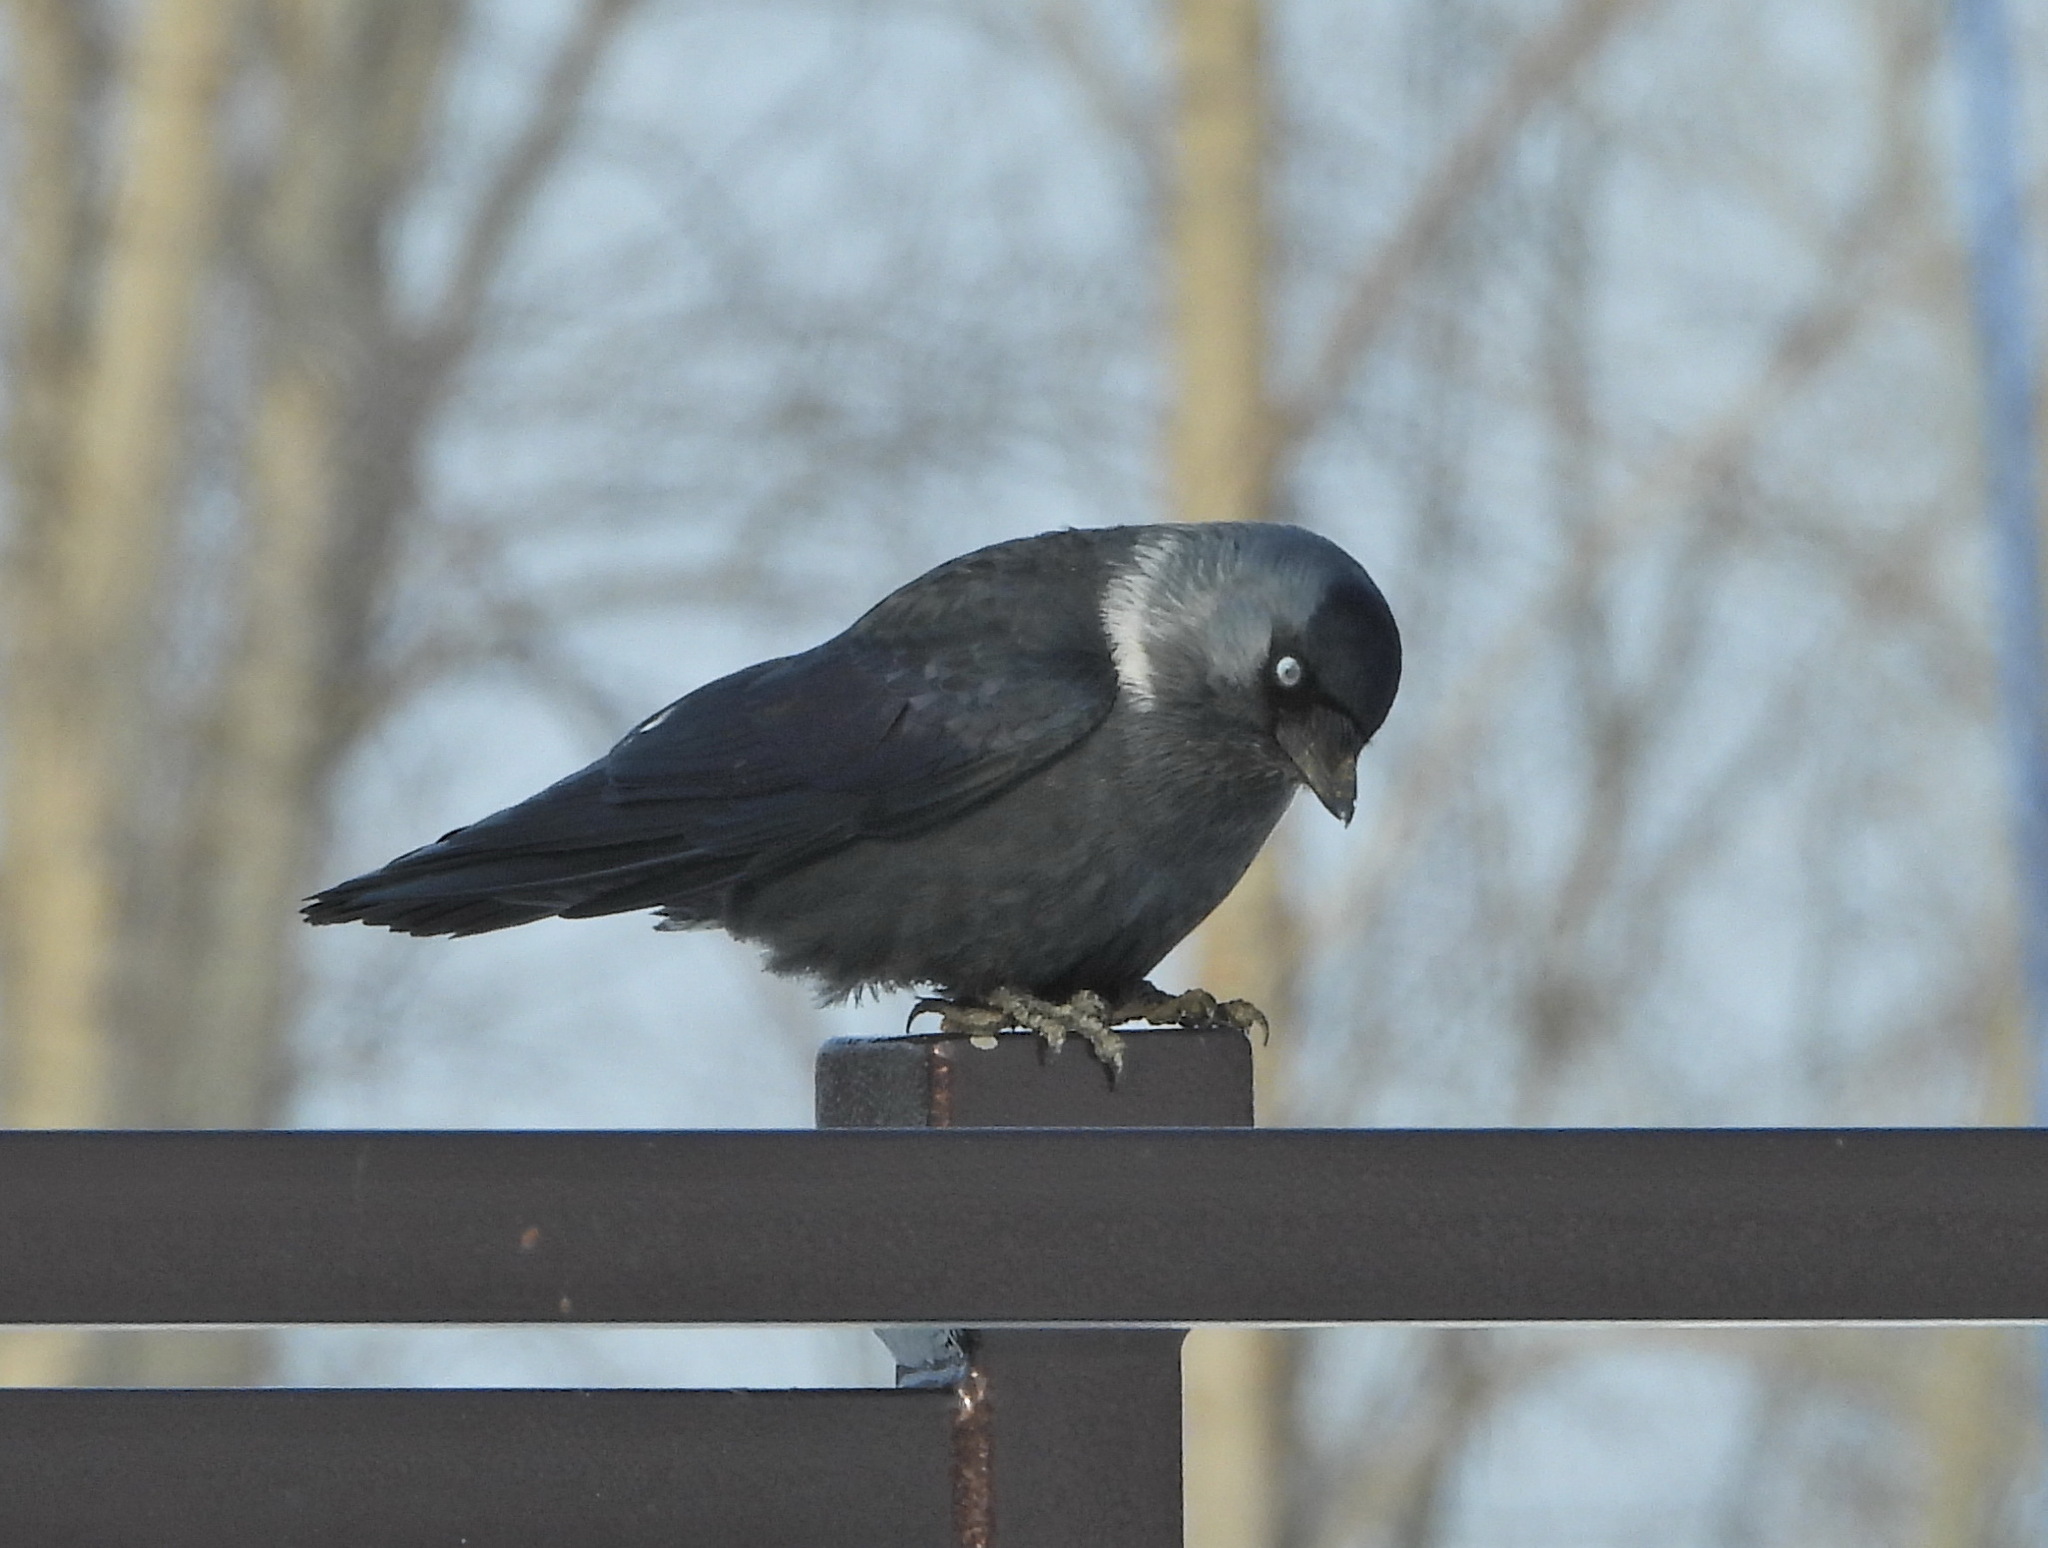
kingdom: Animalia
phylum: Chordata
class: Aves
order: Passeriformes
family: Corvidae
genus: Coloeus
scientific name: Coloeus monedula
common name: Western jackdaw
